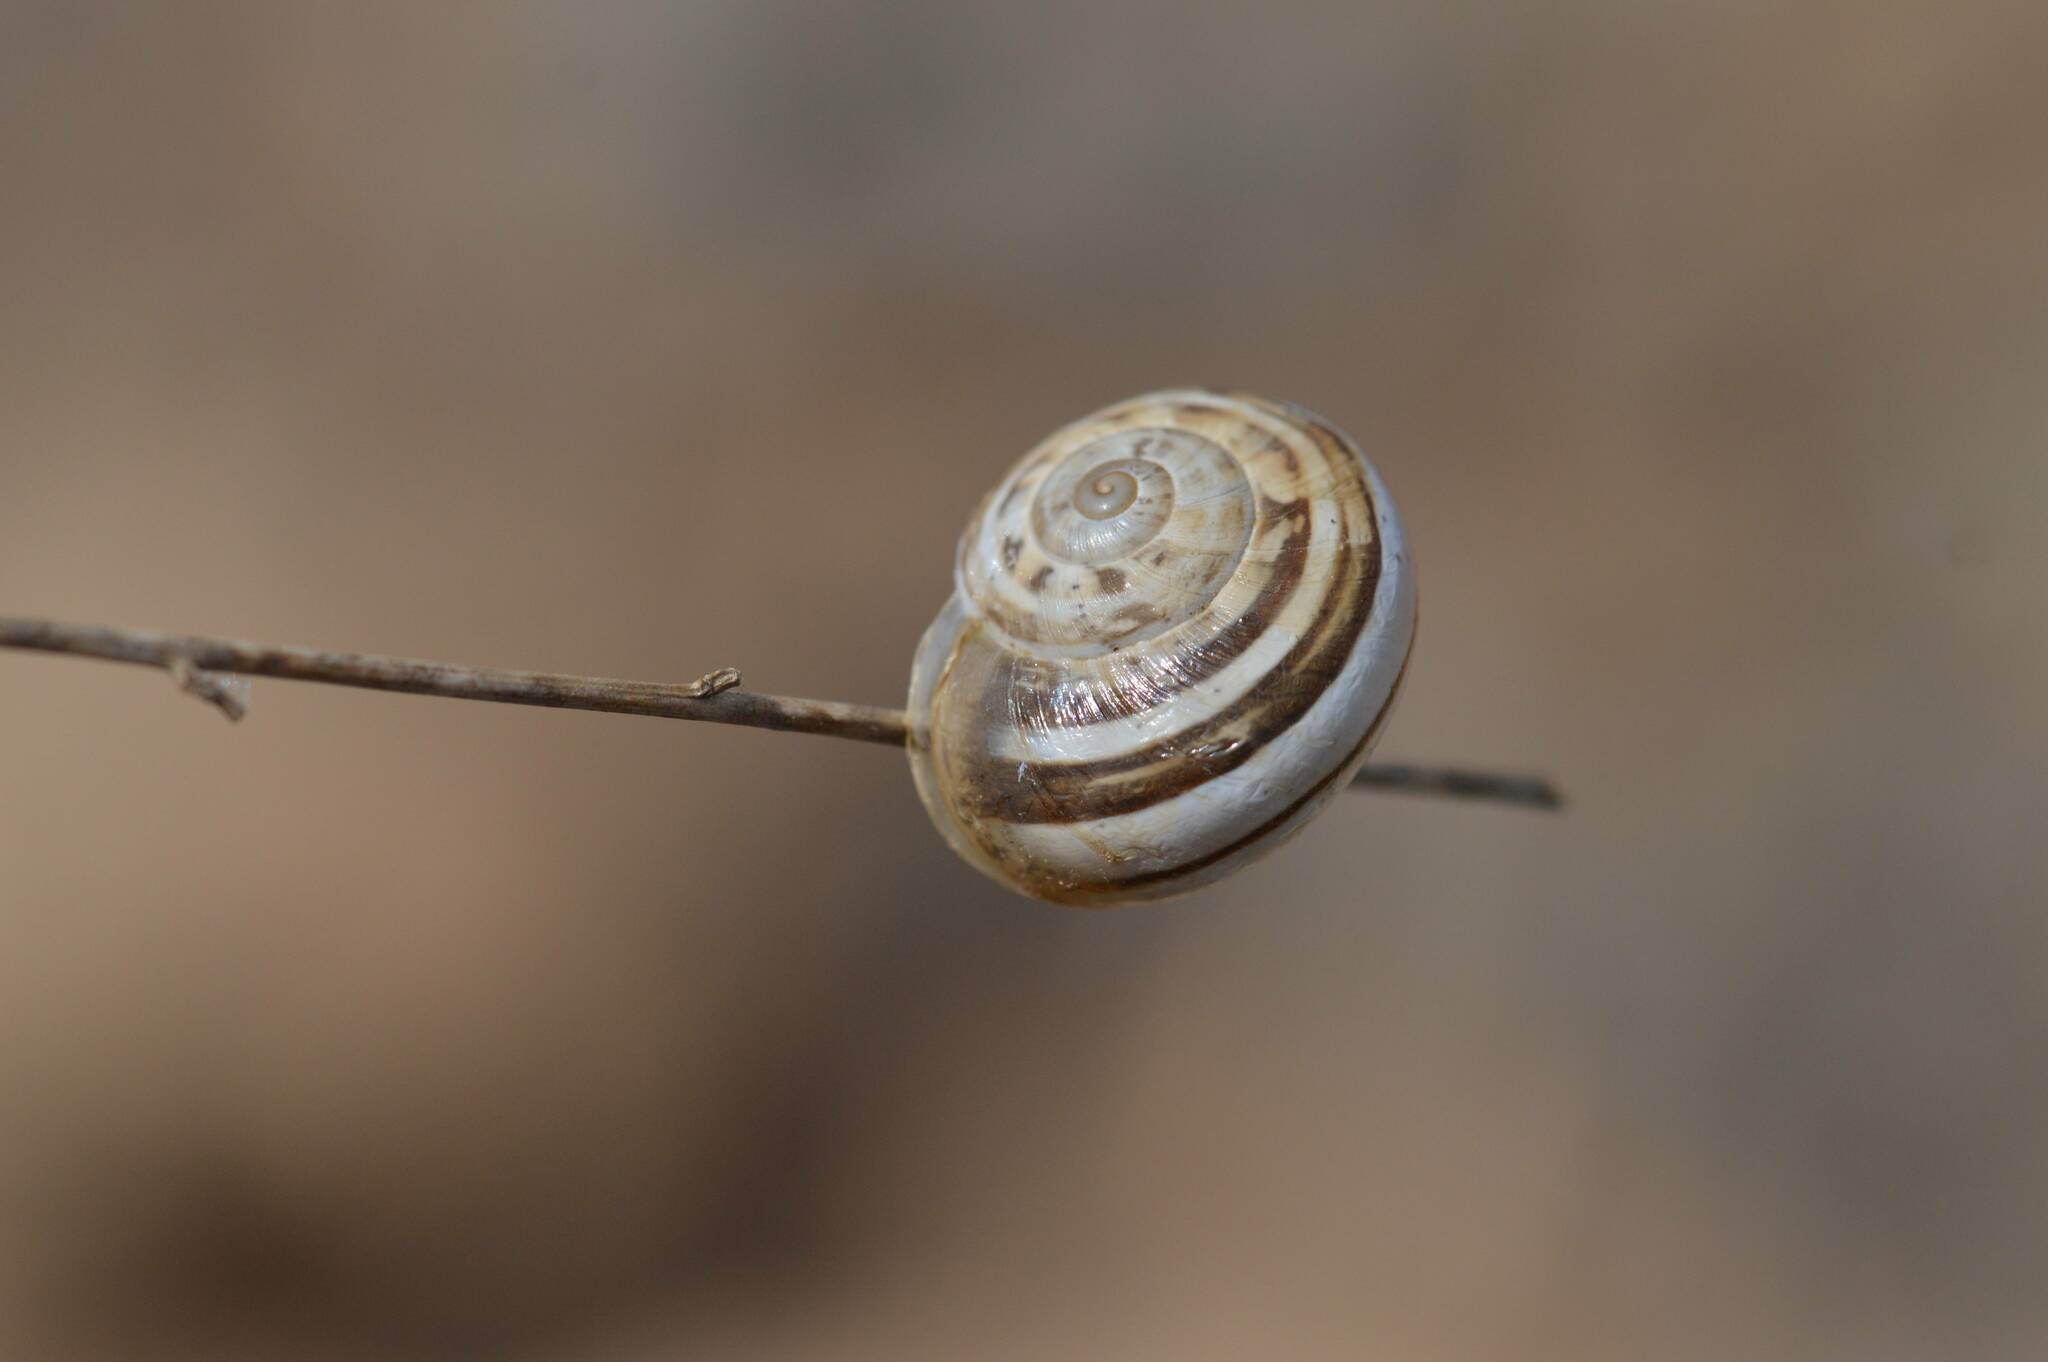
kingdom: Animalia
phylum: Mollusca
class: Gastropoda
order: Stylommatophora
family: Helicidae
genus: Eobania
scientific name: Eobania vermiculata
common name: Chocolateband snail
